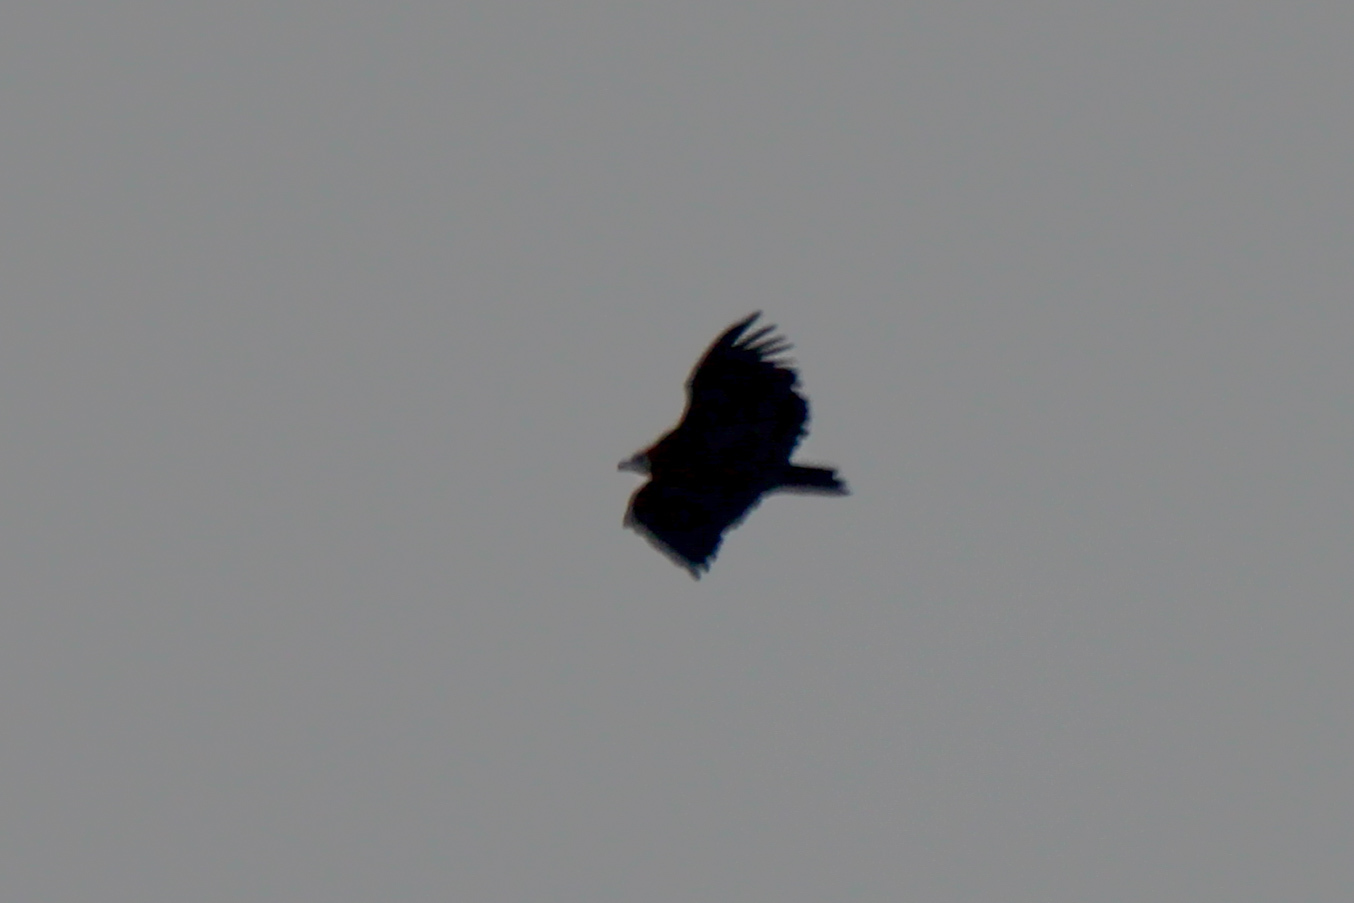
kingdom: Animalia
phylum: Chordata
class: Aves
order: Accipitriformes
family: Accipitridae
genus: Aegypius
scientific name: Aegypius monachus
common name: Cinereous vulture
